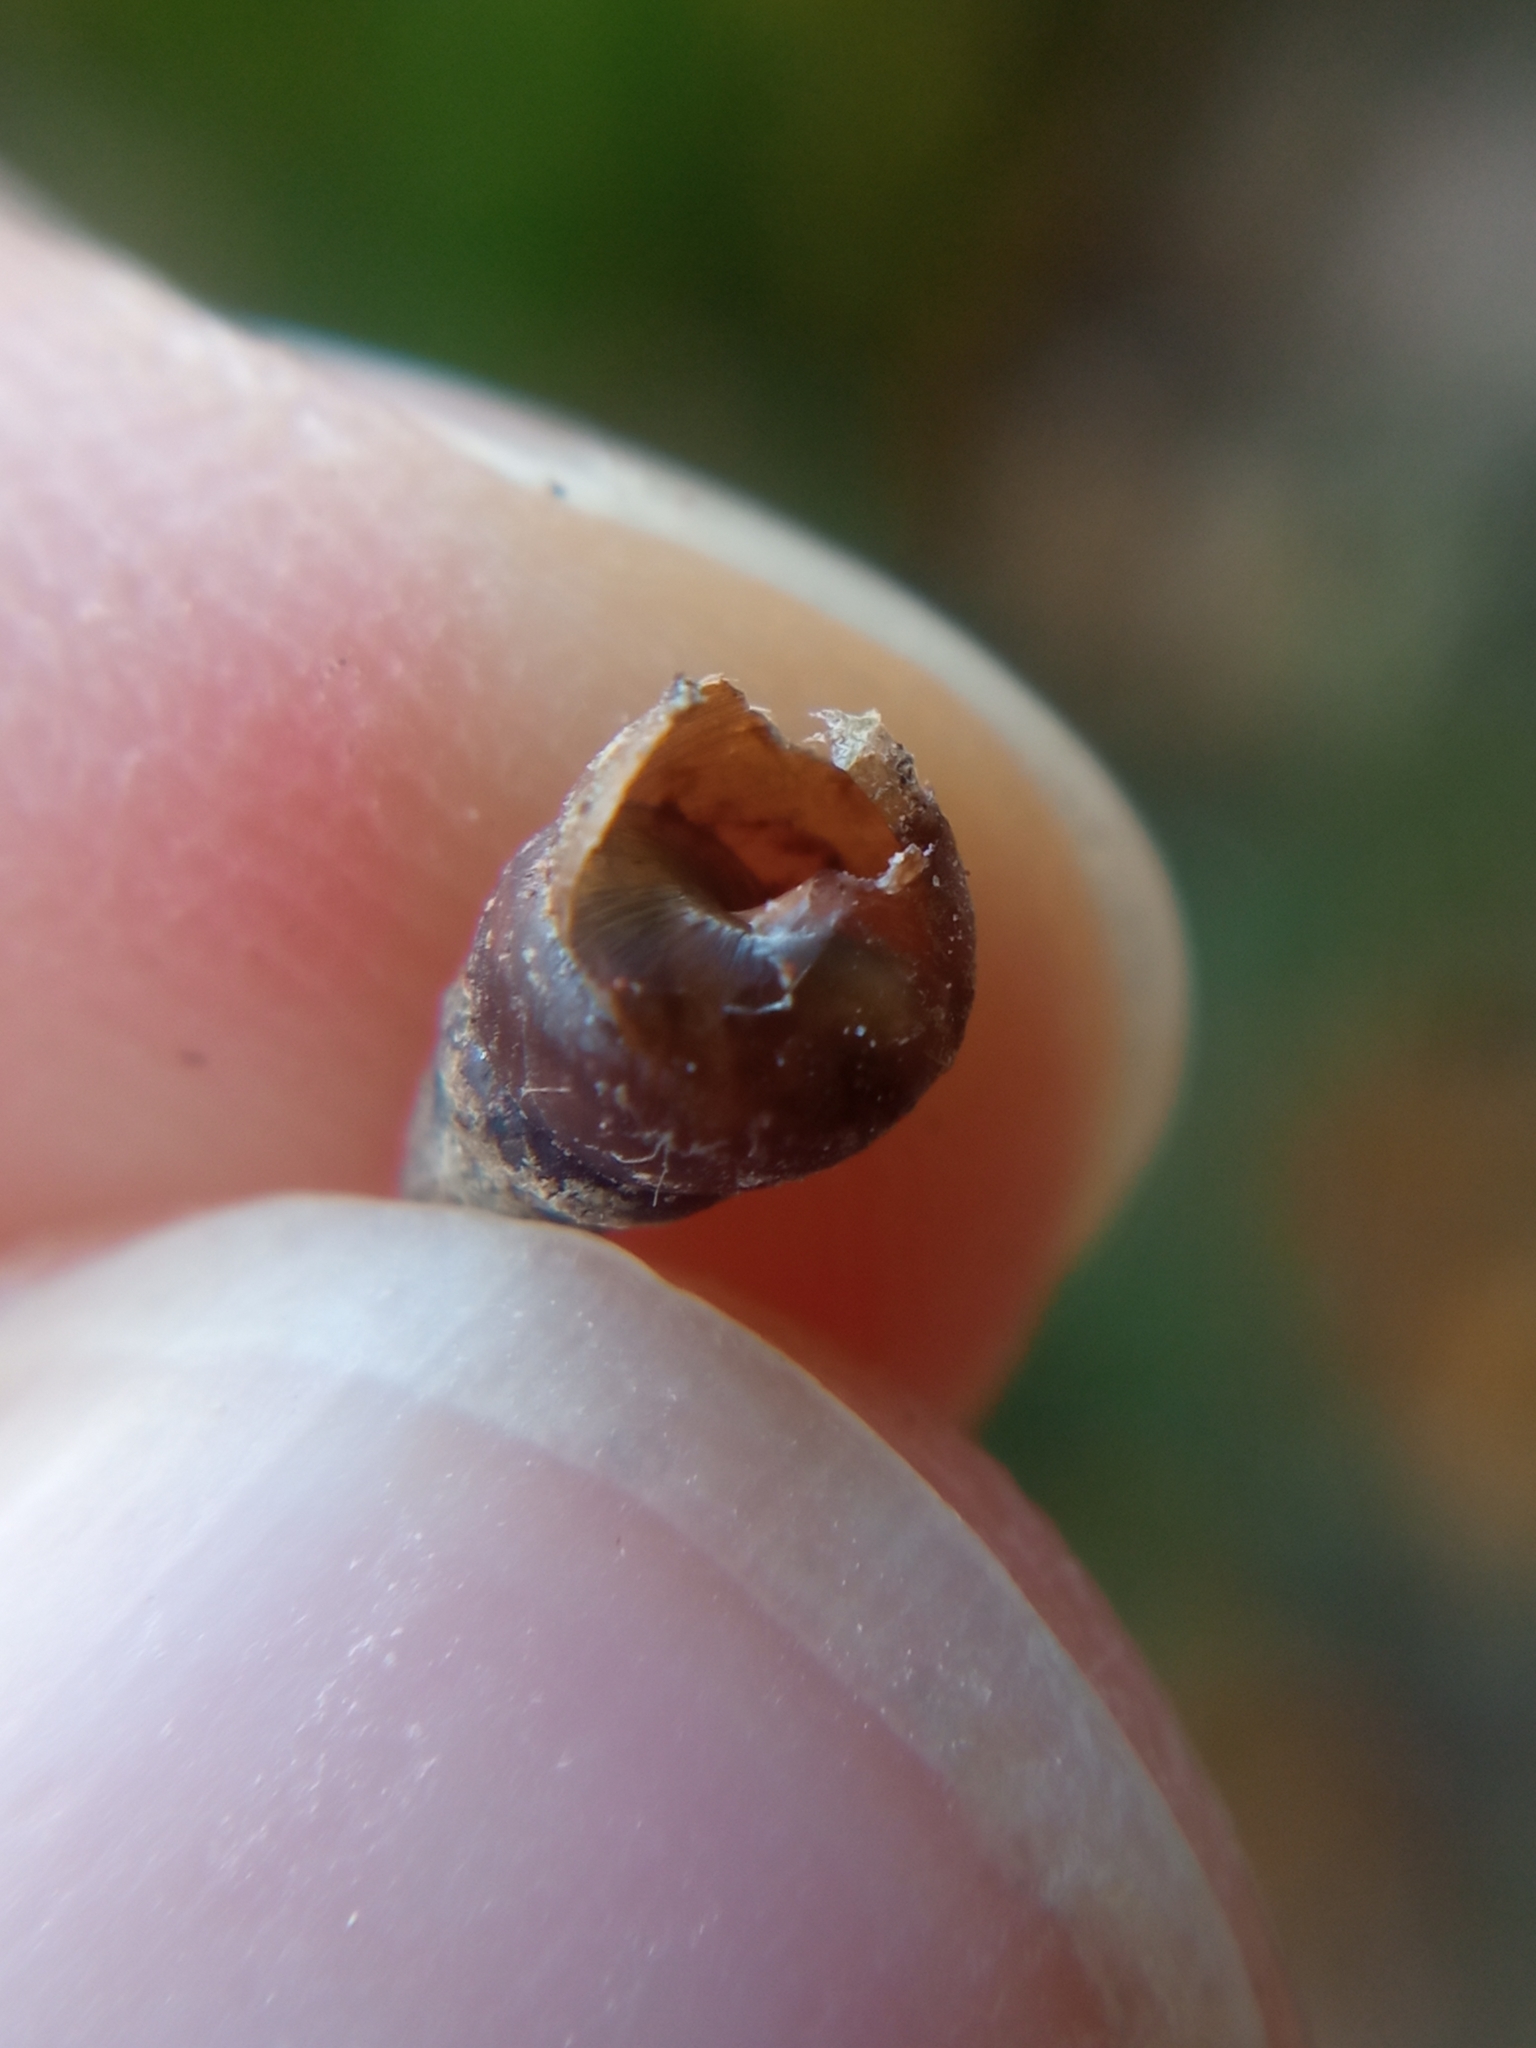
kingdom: Animalia
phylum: Mollusca
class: Gastropoda
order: Stylommatophora
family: Enidae
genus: Merdigera
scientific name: Merdigera obscura
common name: Lesser bulin
